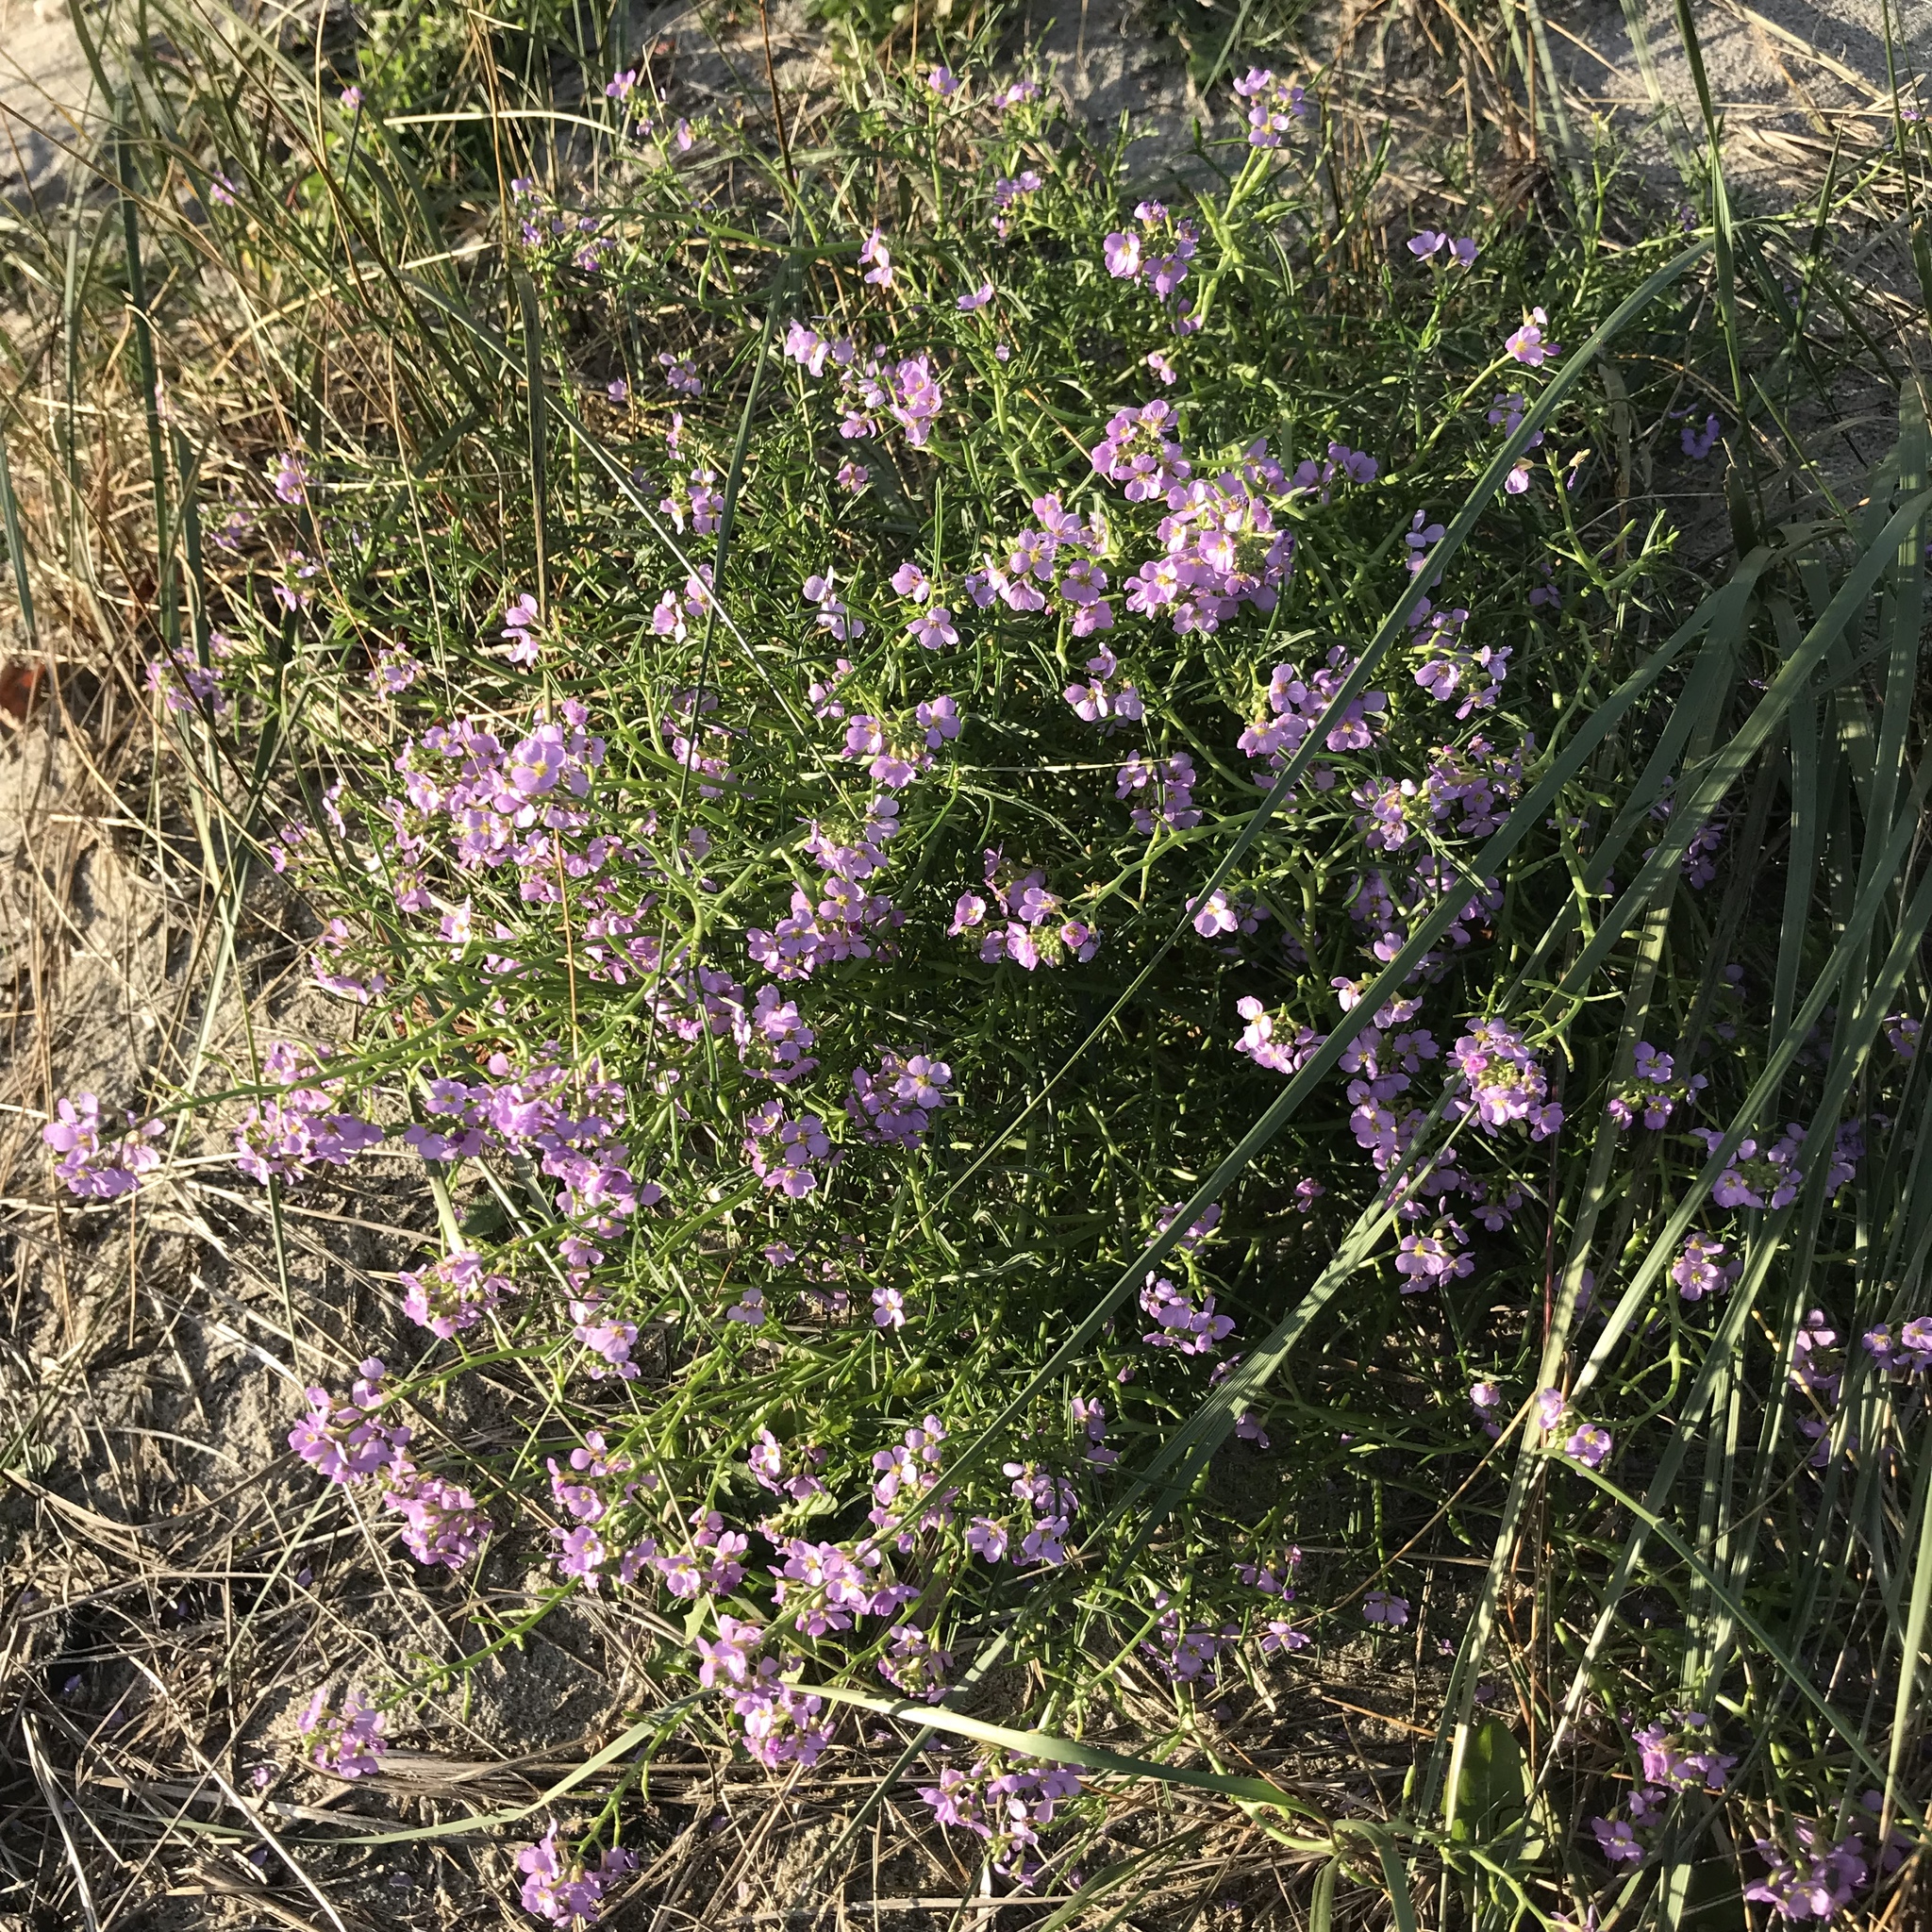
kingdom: Plantae
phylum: Tracheophyta
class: Magnoliopsida
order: Brassicales
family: Brassicaceae
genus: Cakile
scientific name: Cakile maritima
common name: Sea rocket
